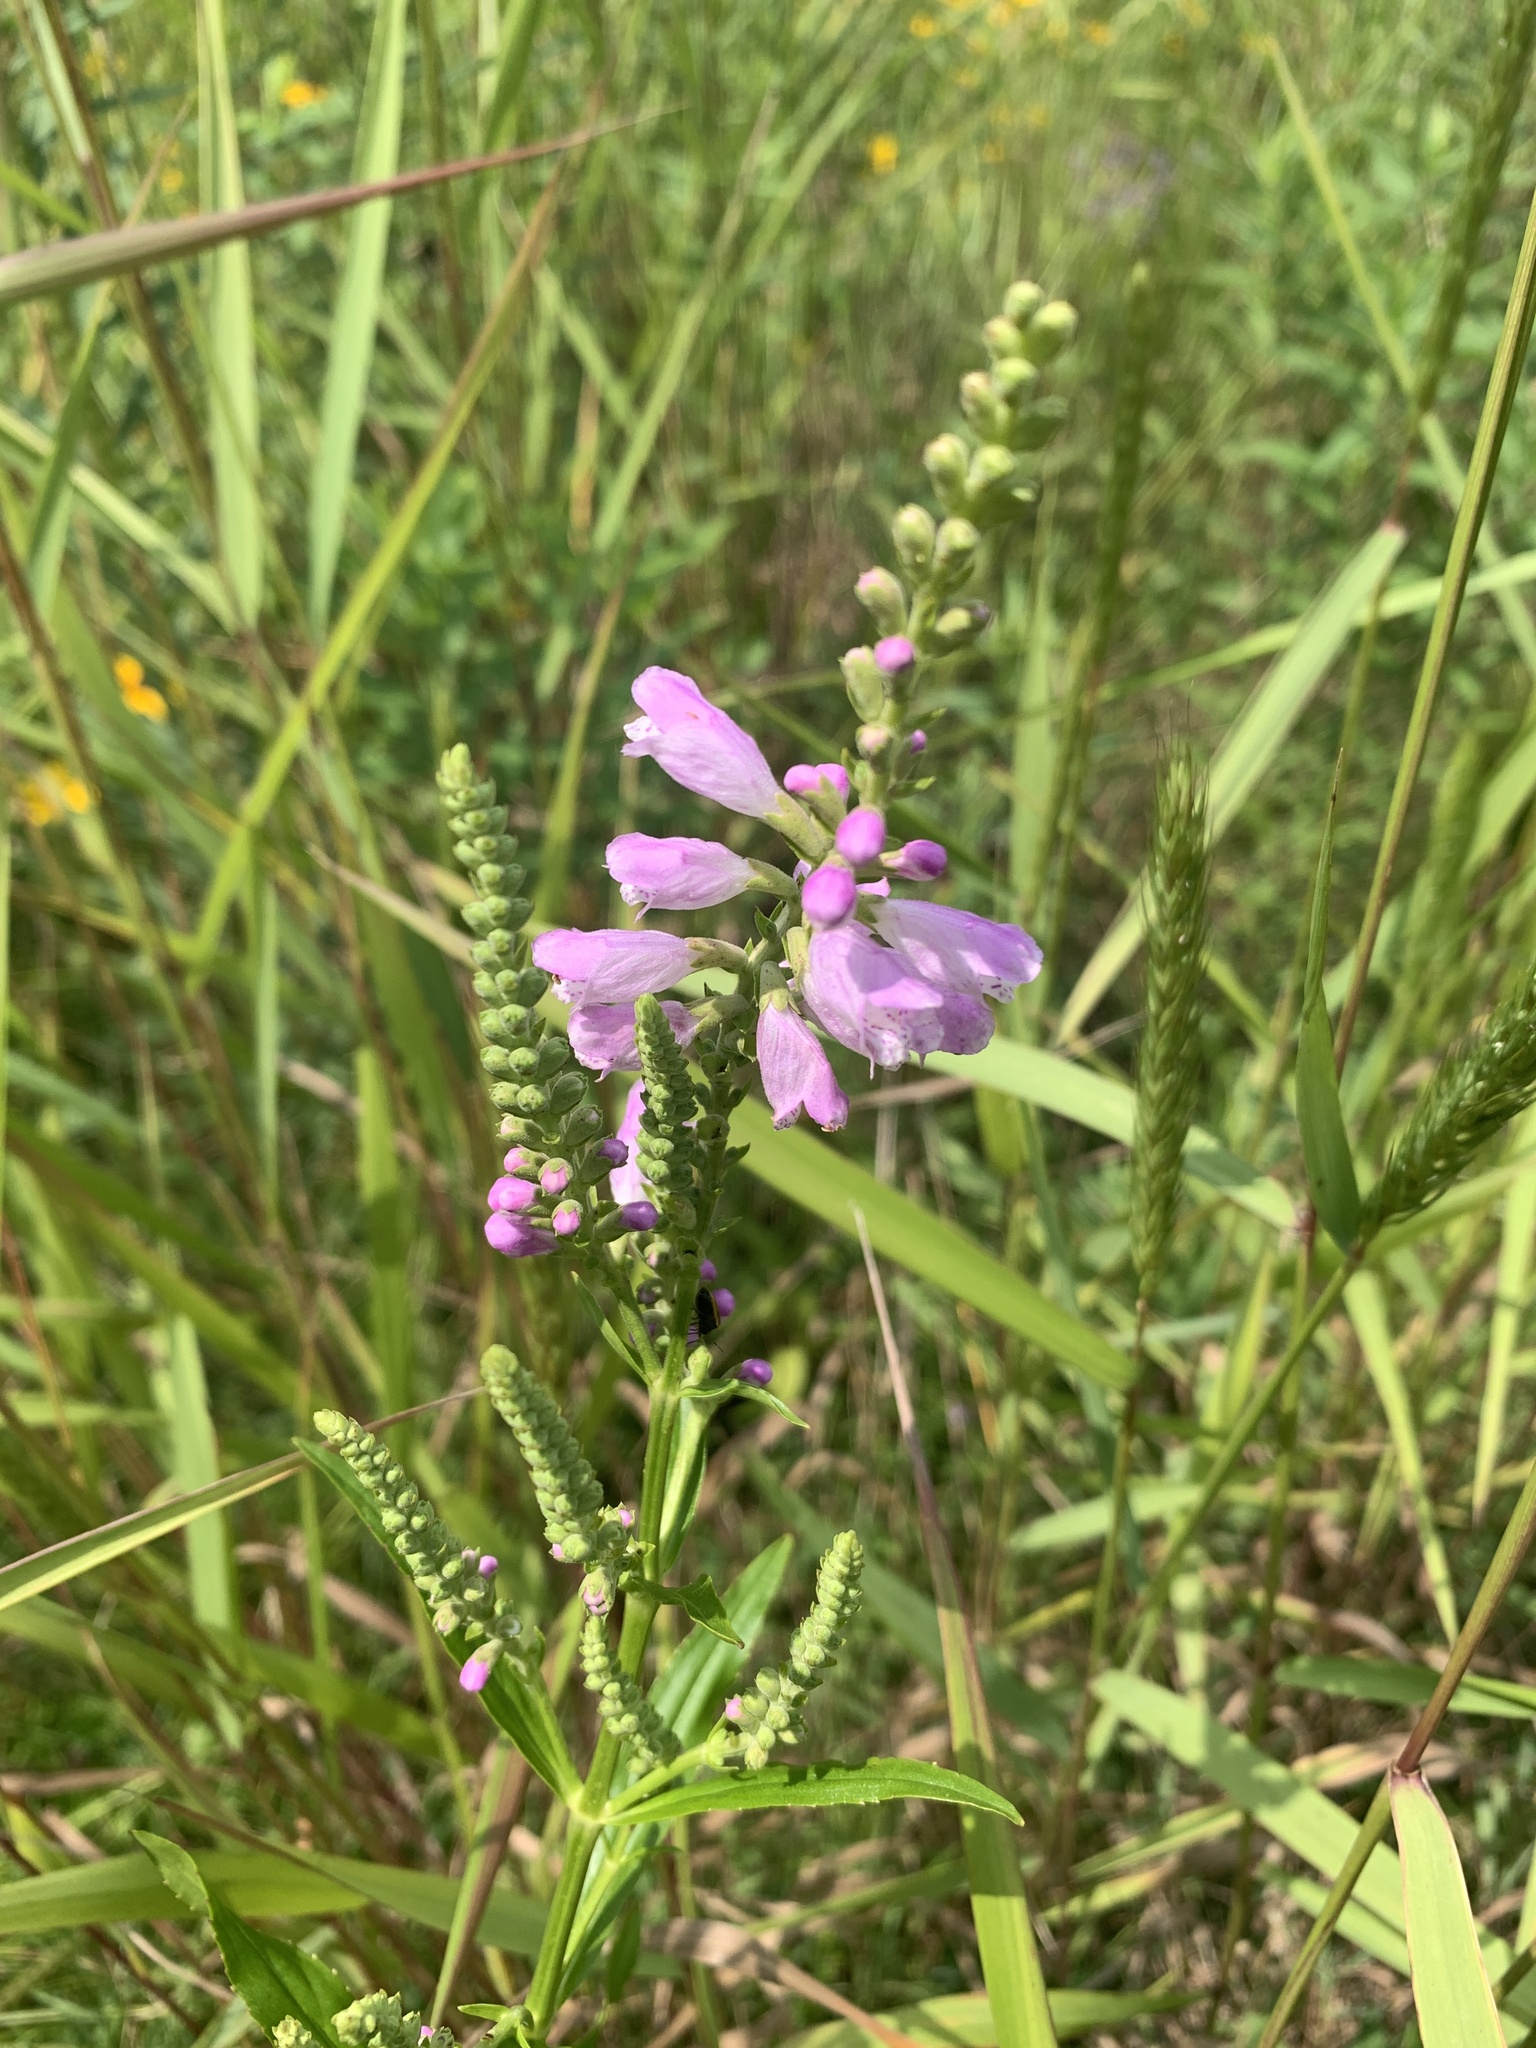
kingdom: Plantae
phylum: Tracheophyta
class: Magnoliopsida
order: Lamiales
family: Lamiaceae
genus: Physostegia
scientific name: Physostegia virginiana
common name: Obedient-plant
